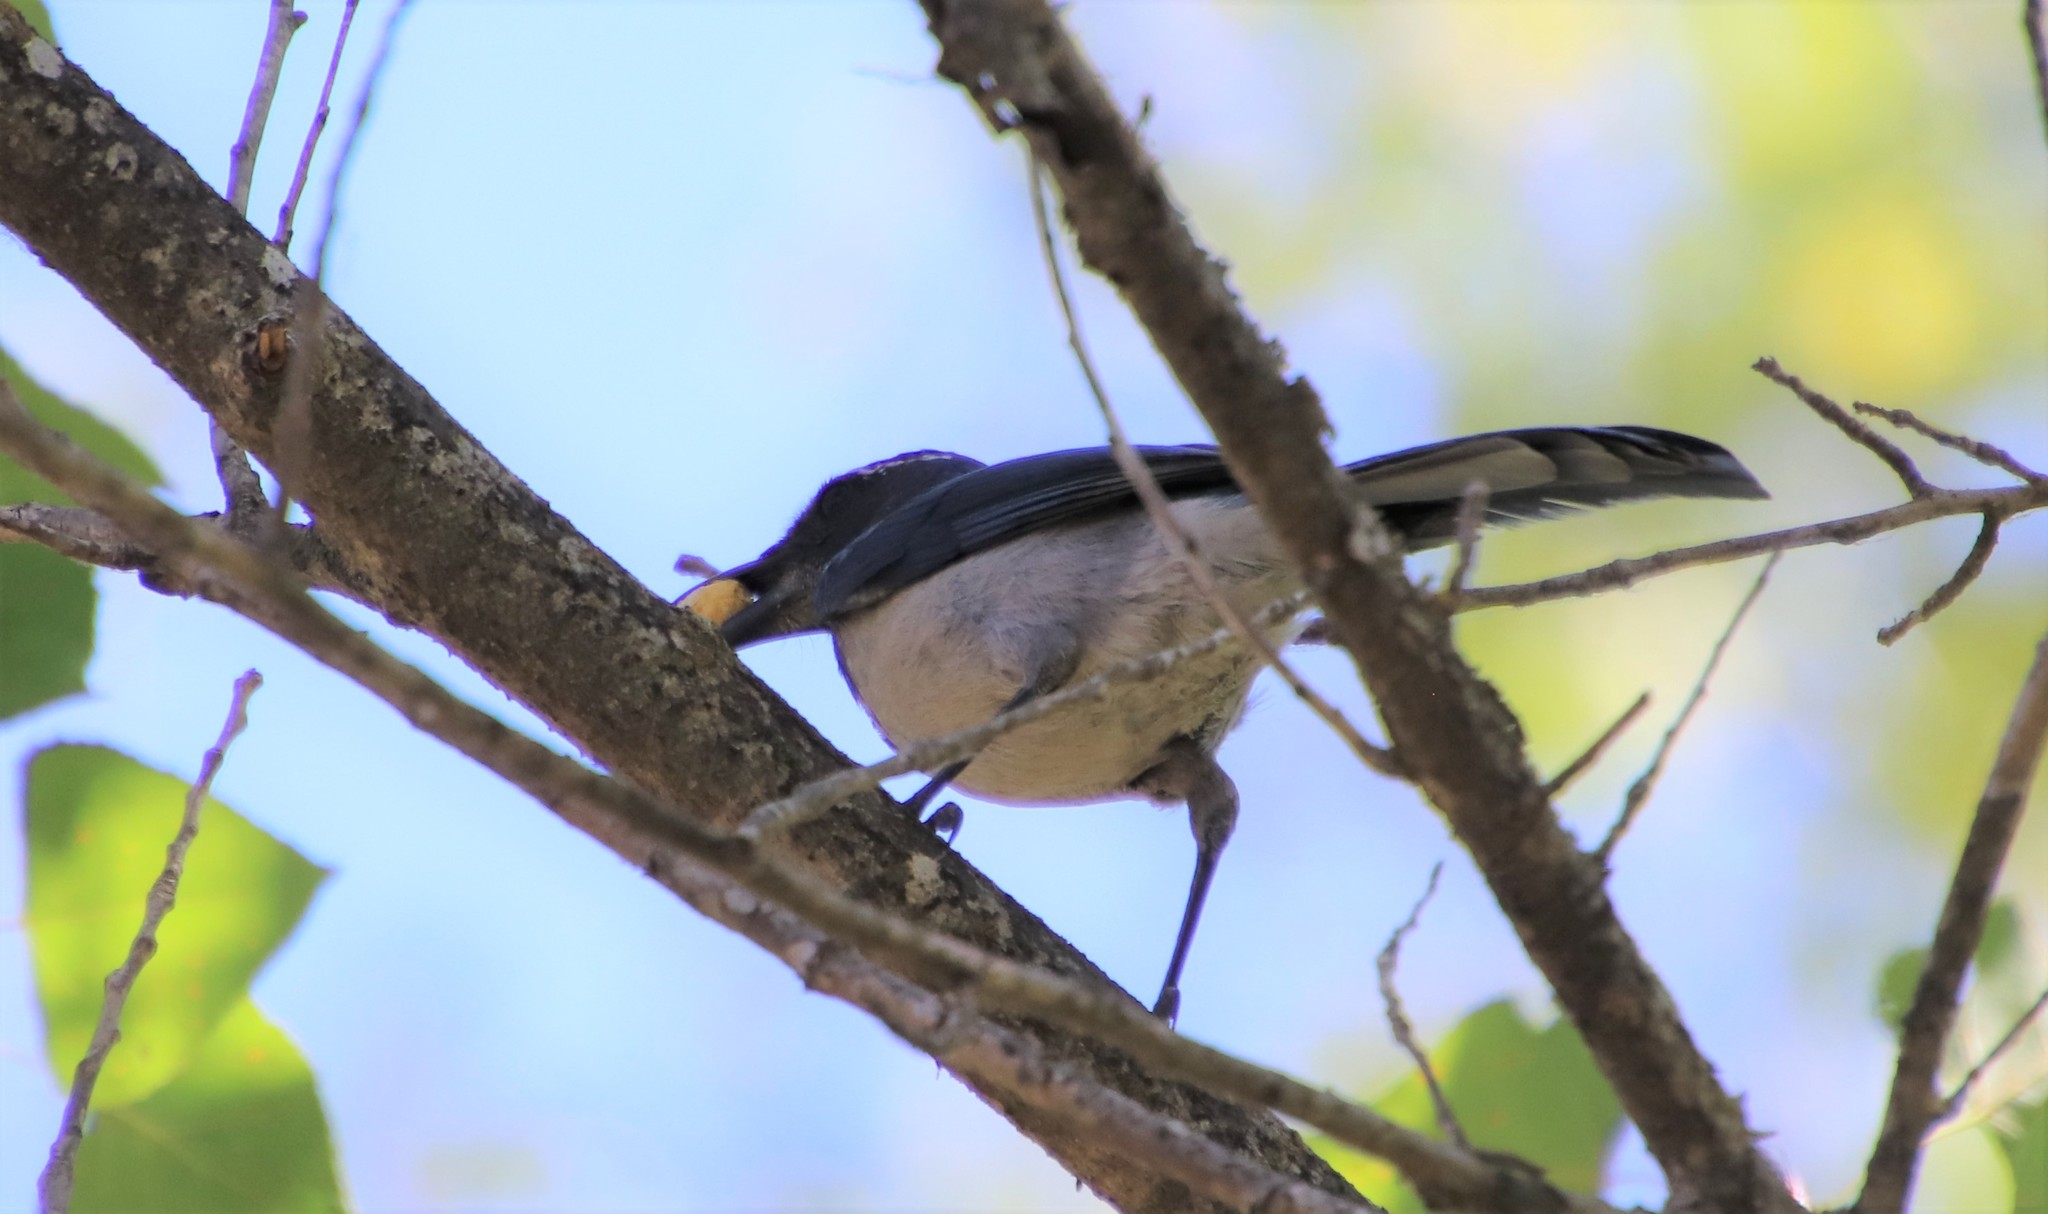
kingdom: Animalia
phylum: Chordata
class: Aves
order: Passeriformes
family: Corvidae
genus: Aphelocoma
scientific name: Aphelocoma californica
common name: California scrub-jay
